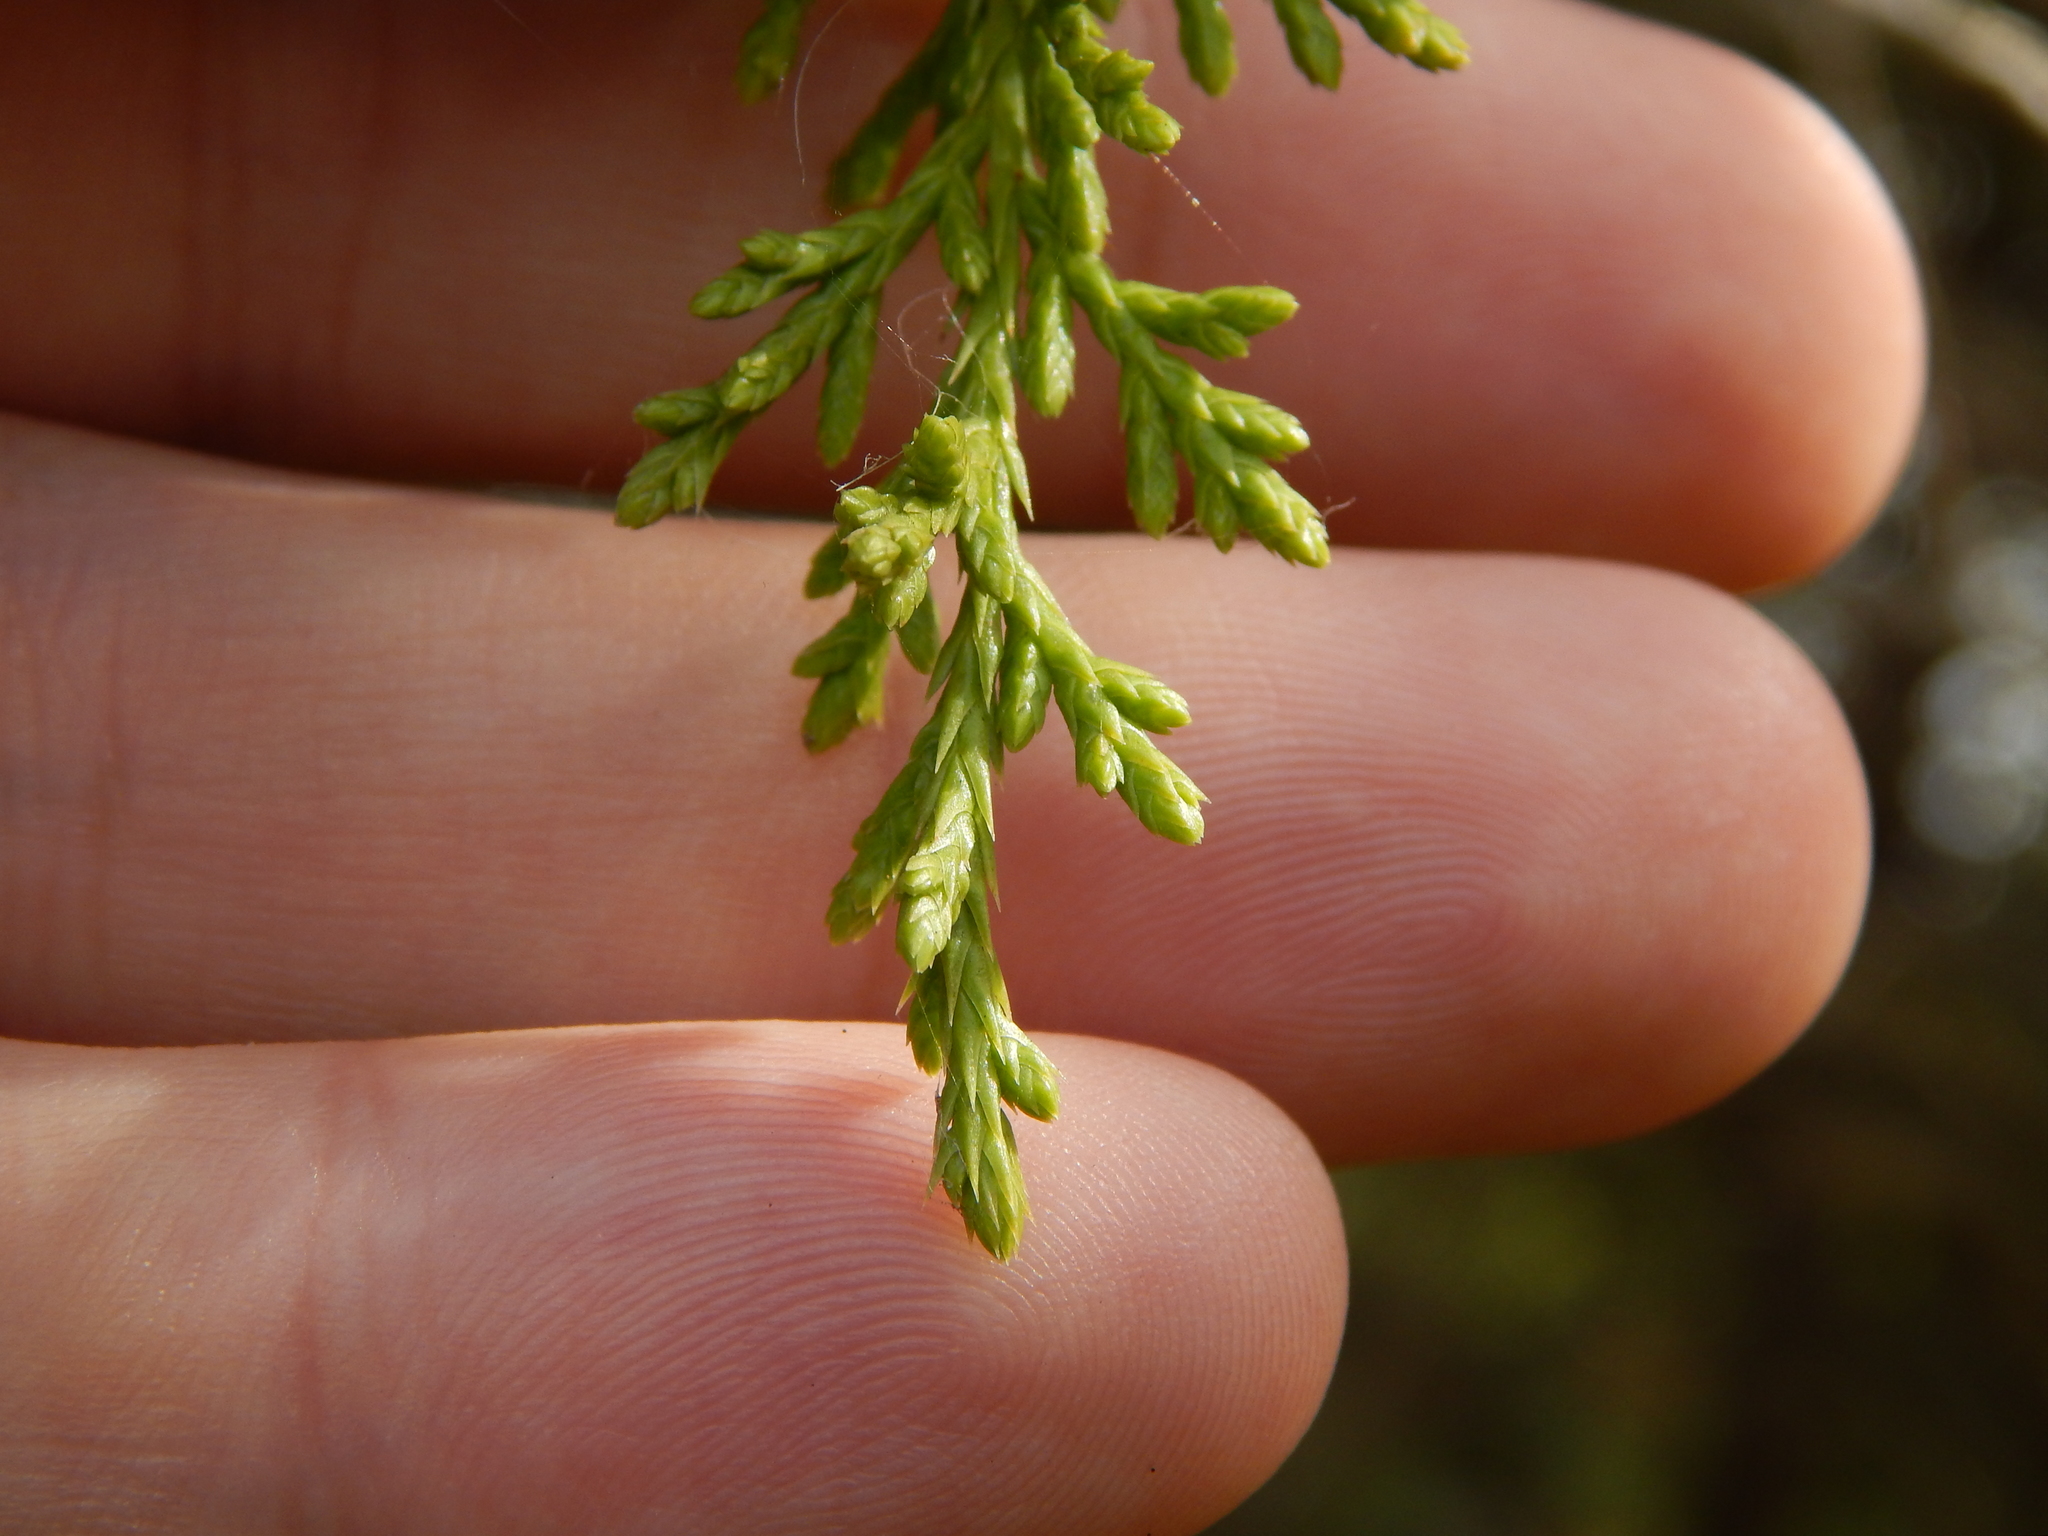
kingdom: Plantae
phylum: Tracheophyta
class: Pinopsida
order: Pinales
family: Cupressaceae
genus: Juniperus
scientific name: Juniperus virginiana
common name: Red juniper
